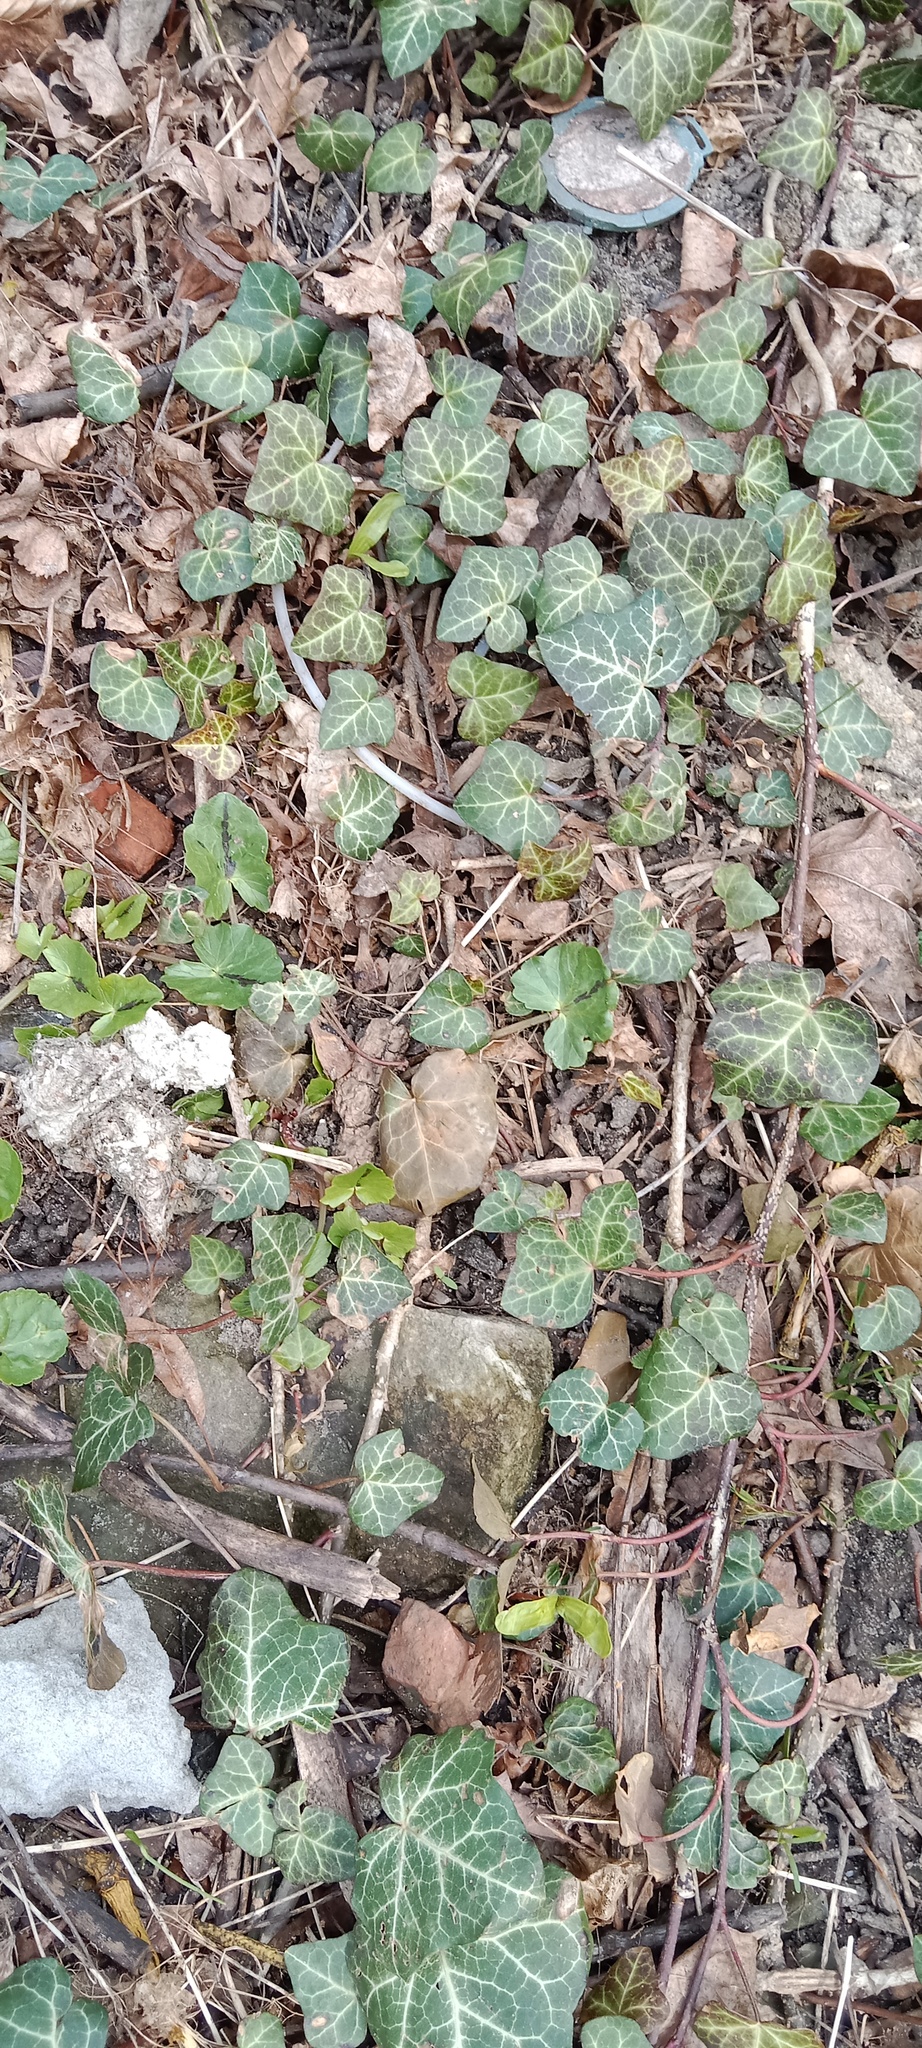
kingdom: Plantae
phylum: Tracheophyta
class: Magnoliopsida
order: Apiales
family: Araliaceae
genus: Hedera
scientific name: Hedera helix
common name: Ivy
